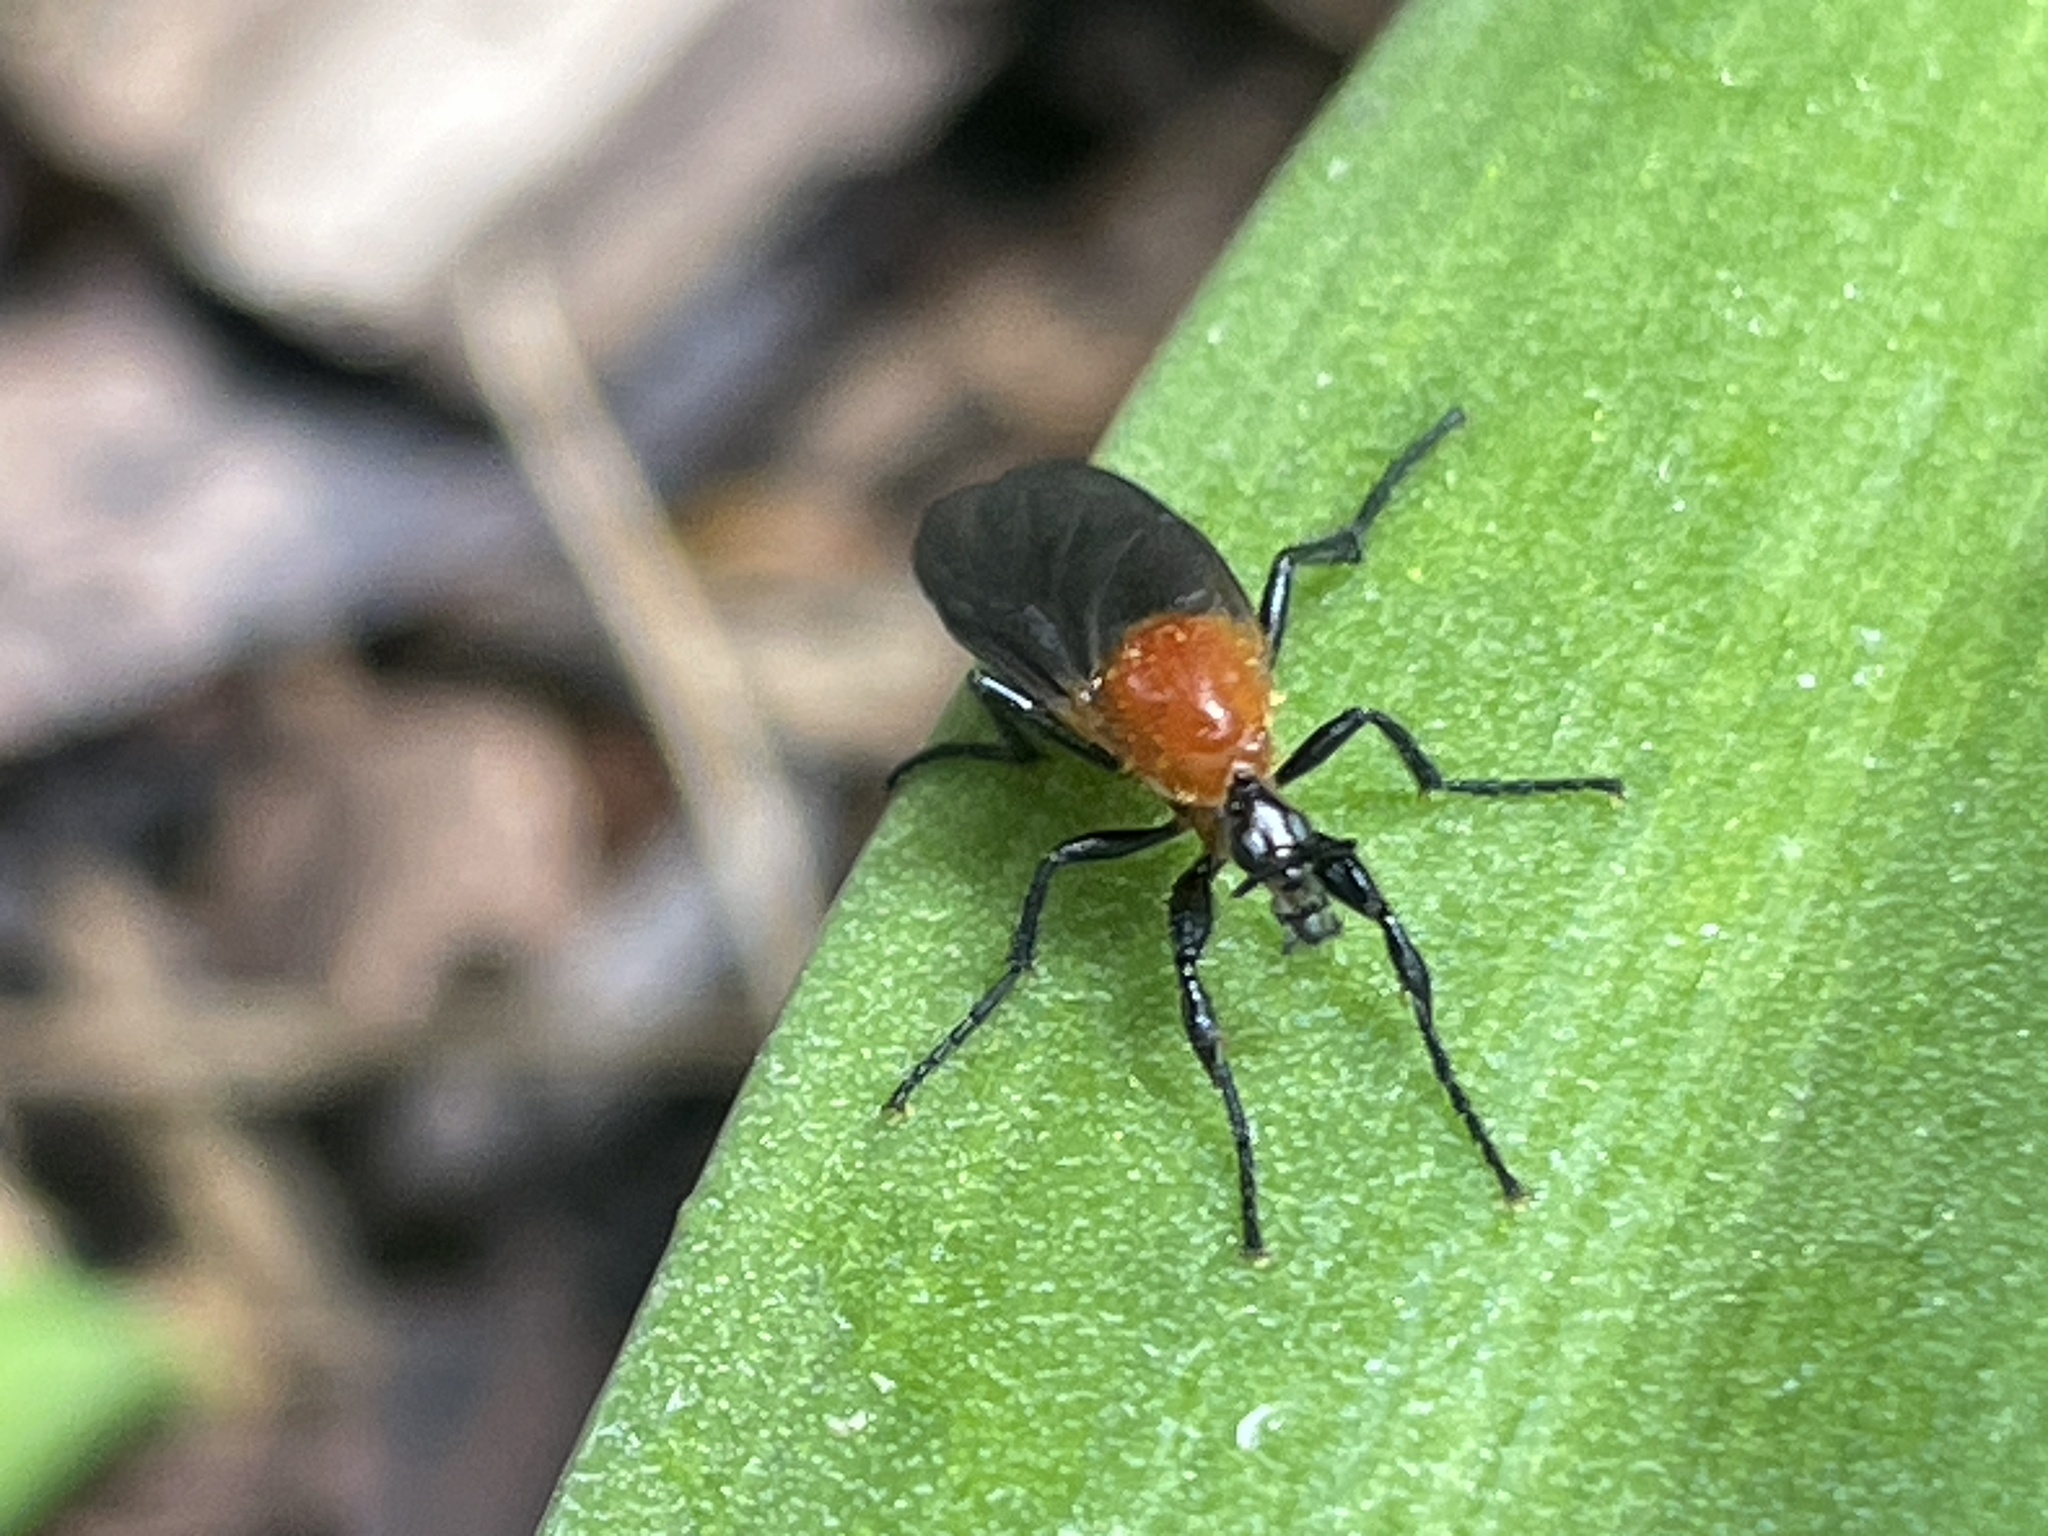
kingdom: Animalia
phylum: Arthropoda
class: Insecta
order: Diptera
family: Bibionidae
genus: Bibio
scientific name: Bibio imitator
